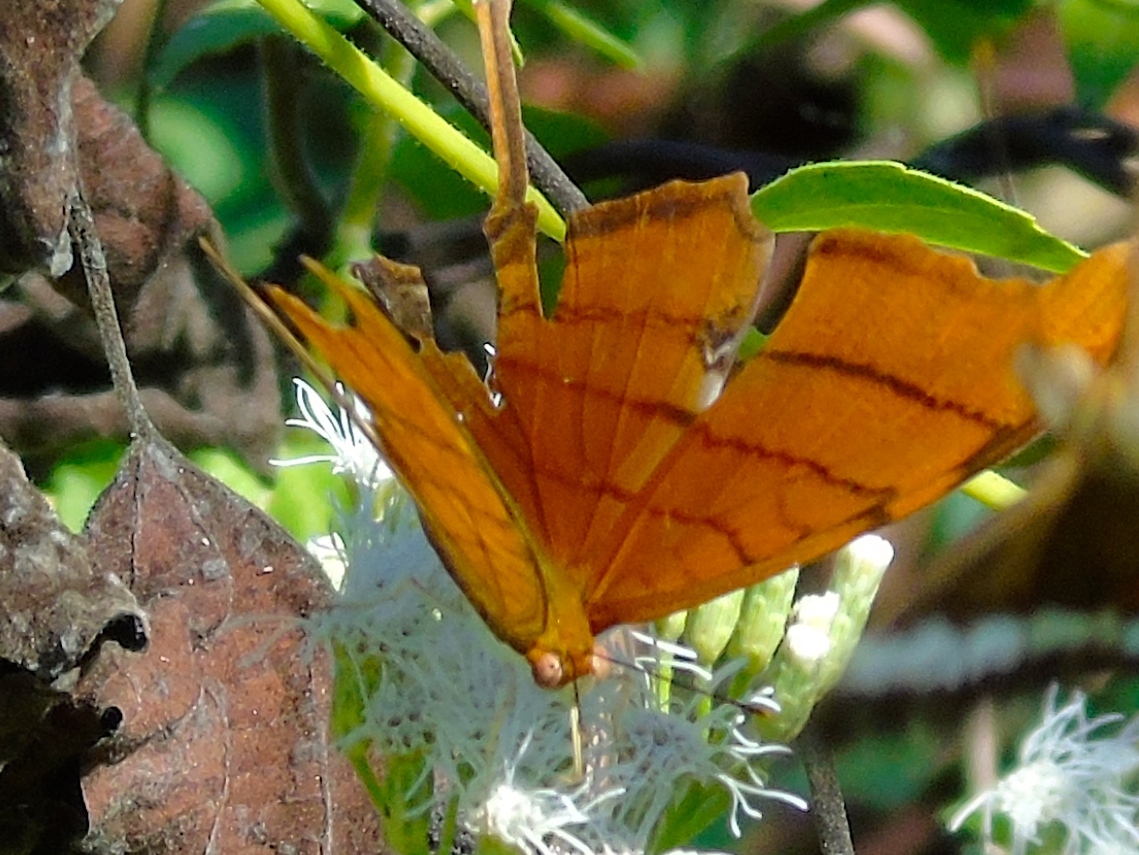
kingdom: Animalia
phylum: Arthropoda
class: Insecta
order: Lepidoptera
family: Nymphalidae
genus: Marpesia
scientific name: Marpesia petreus
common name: Red dagger wing
